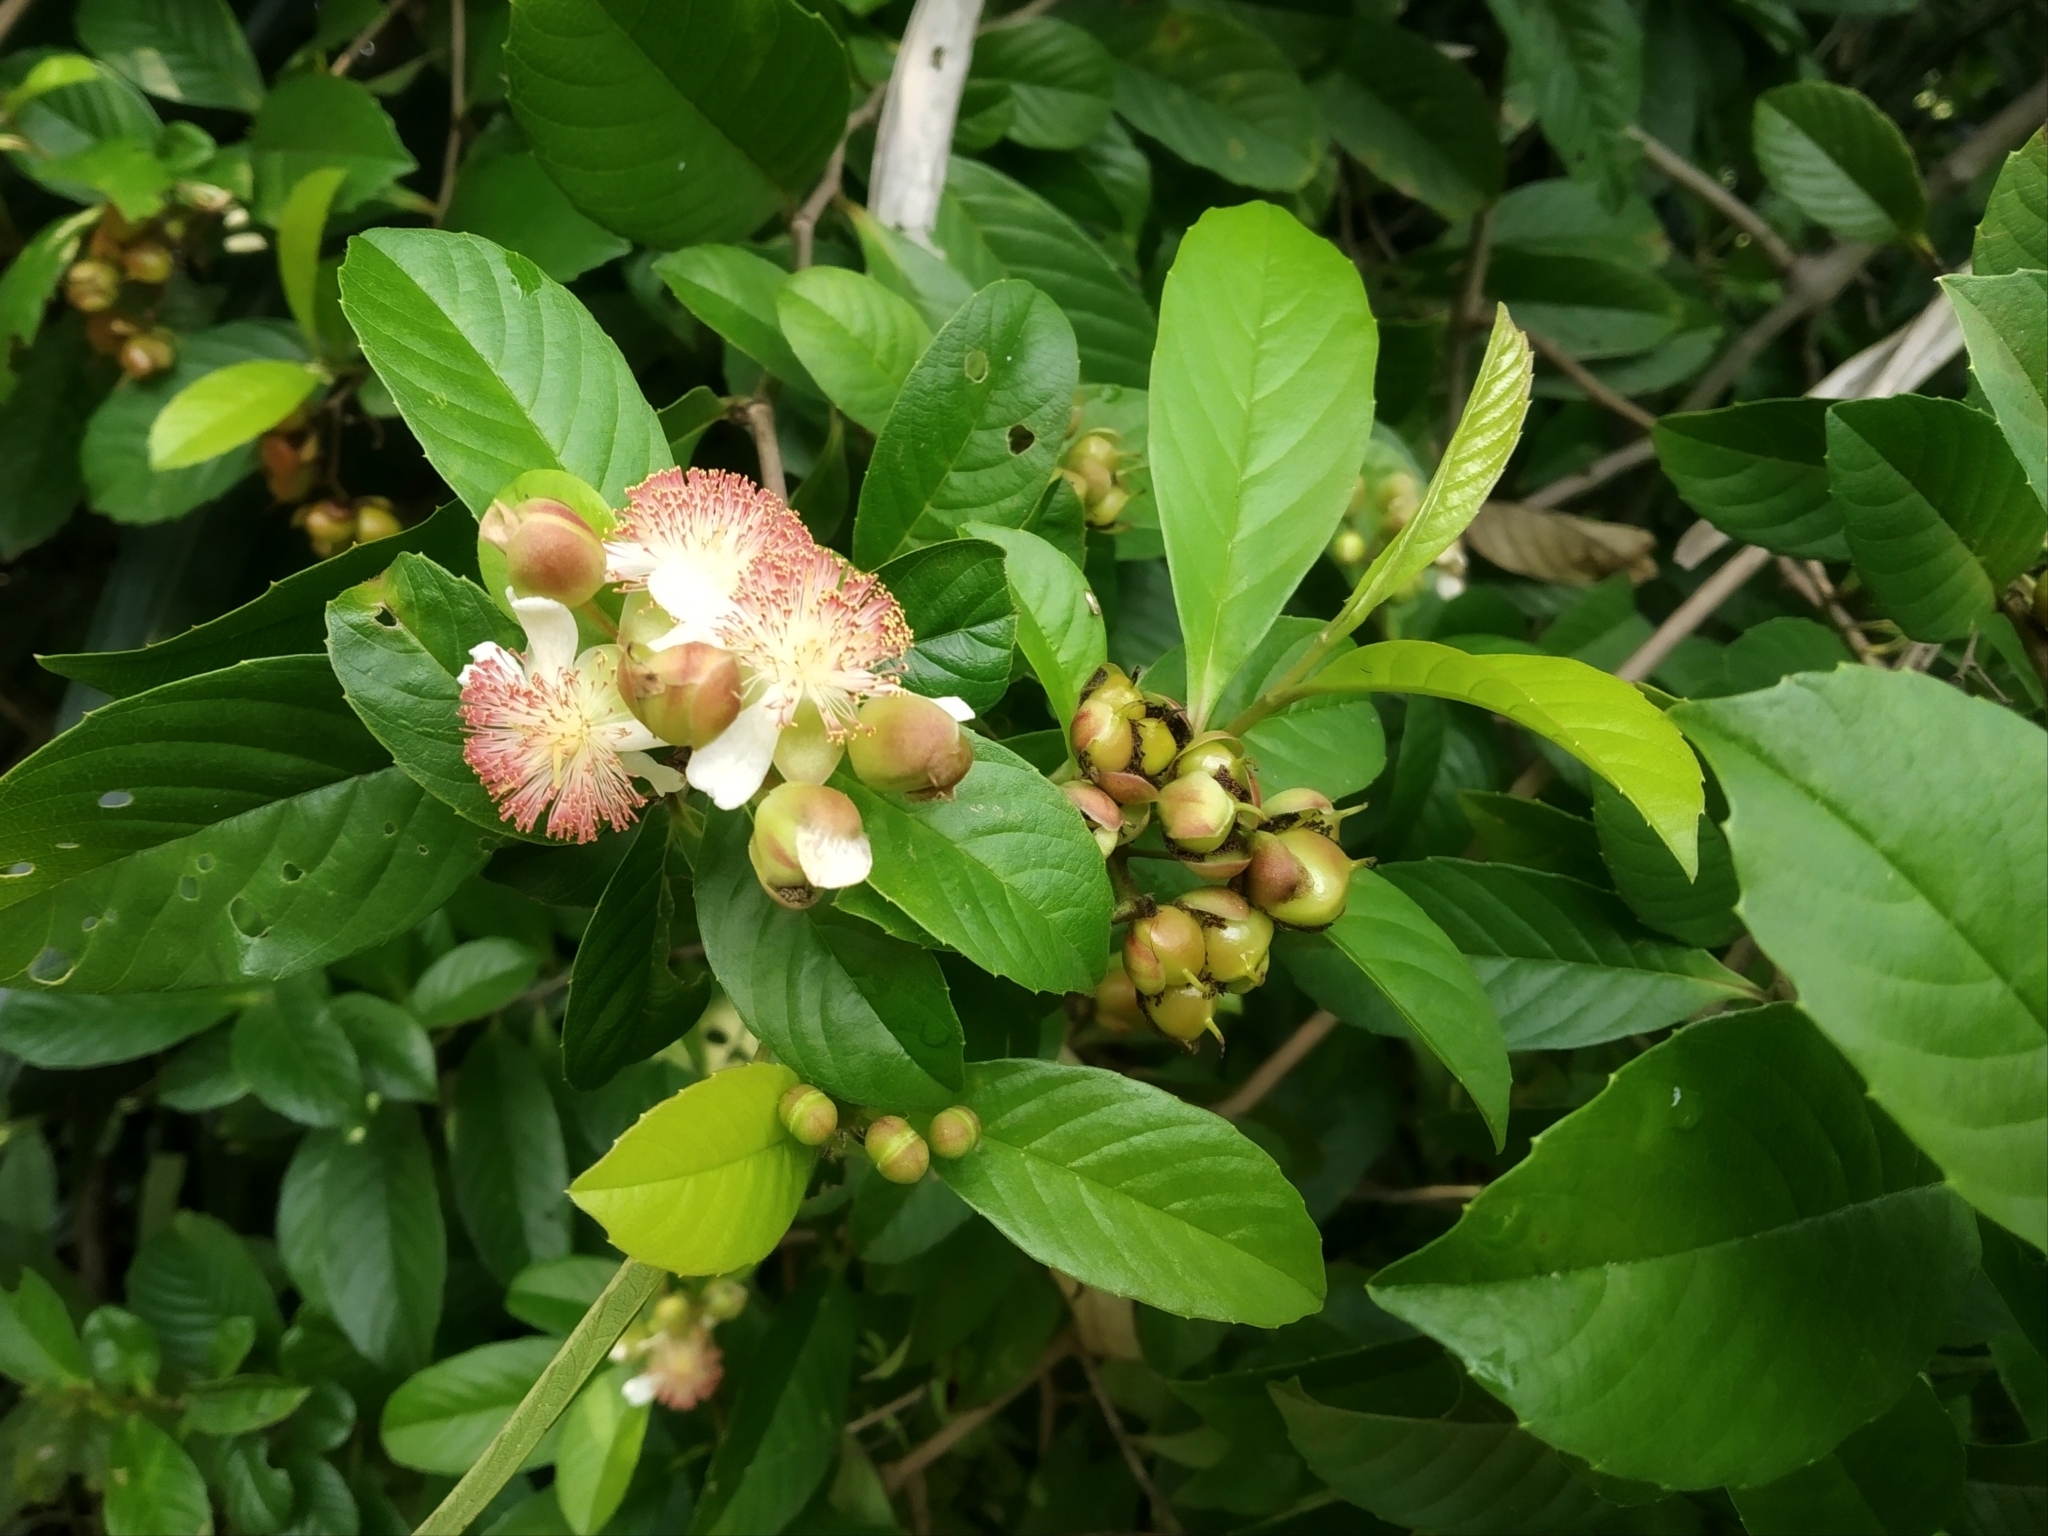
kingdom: Plantae
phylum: Tracheophyta
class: Magnoliopsida
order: Dilleniales
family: Dilleniaceae
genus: Tetracera
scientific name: Tetracera indica
